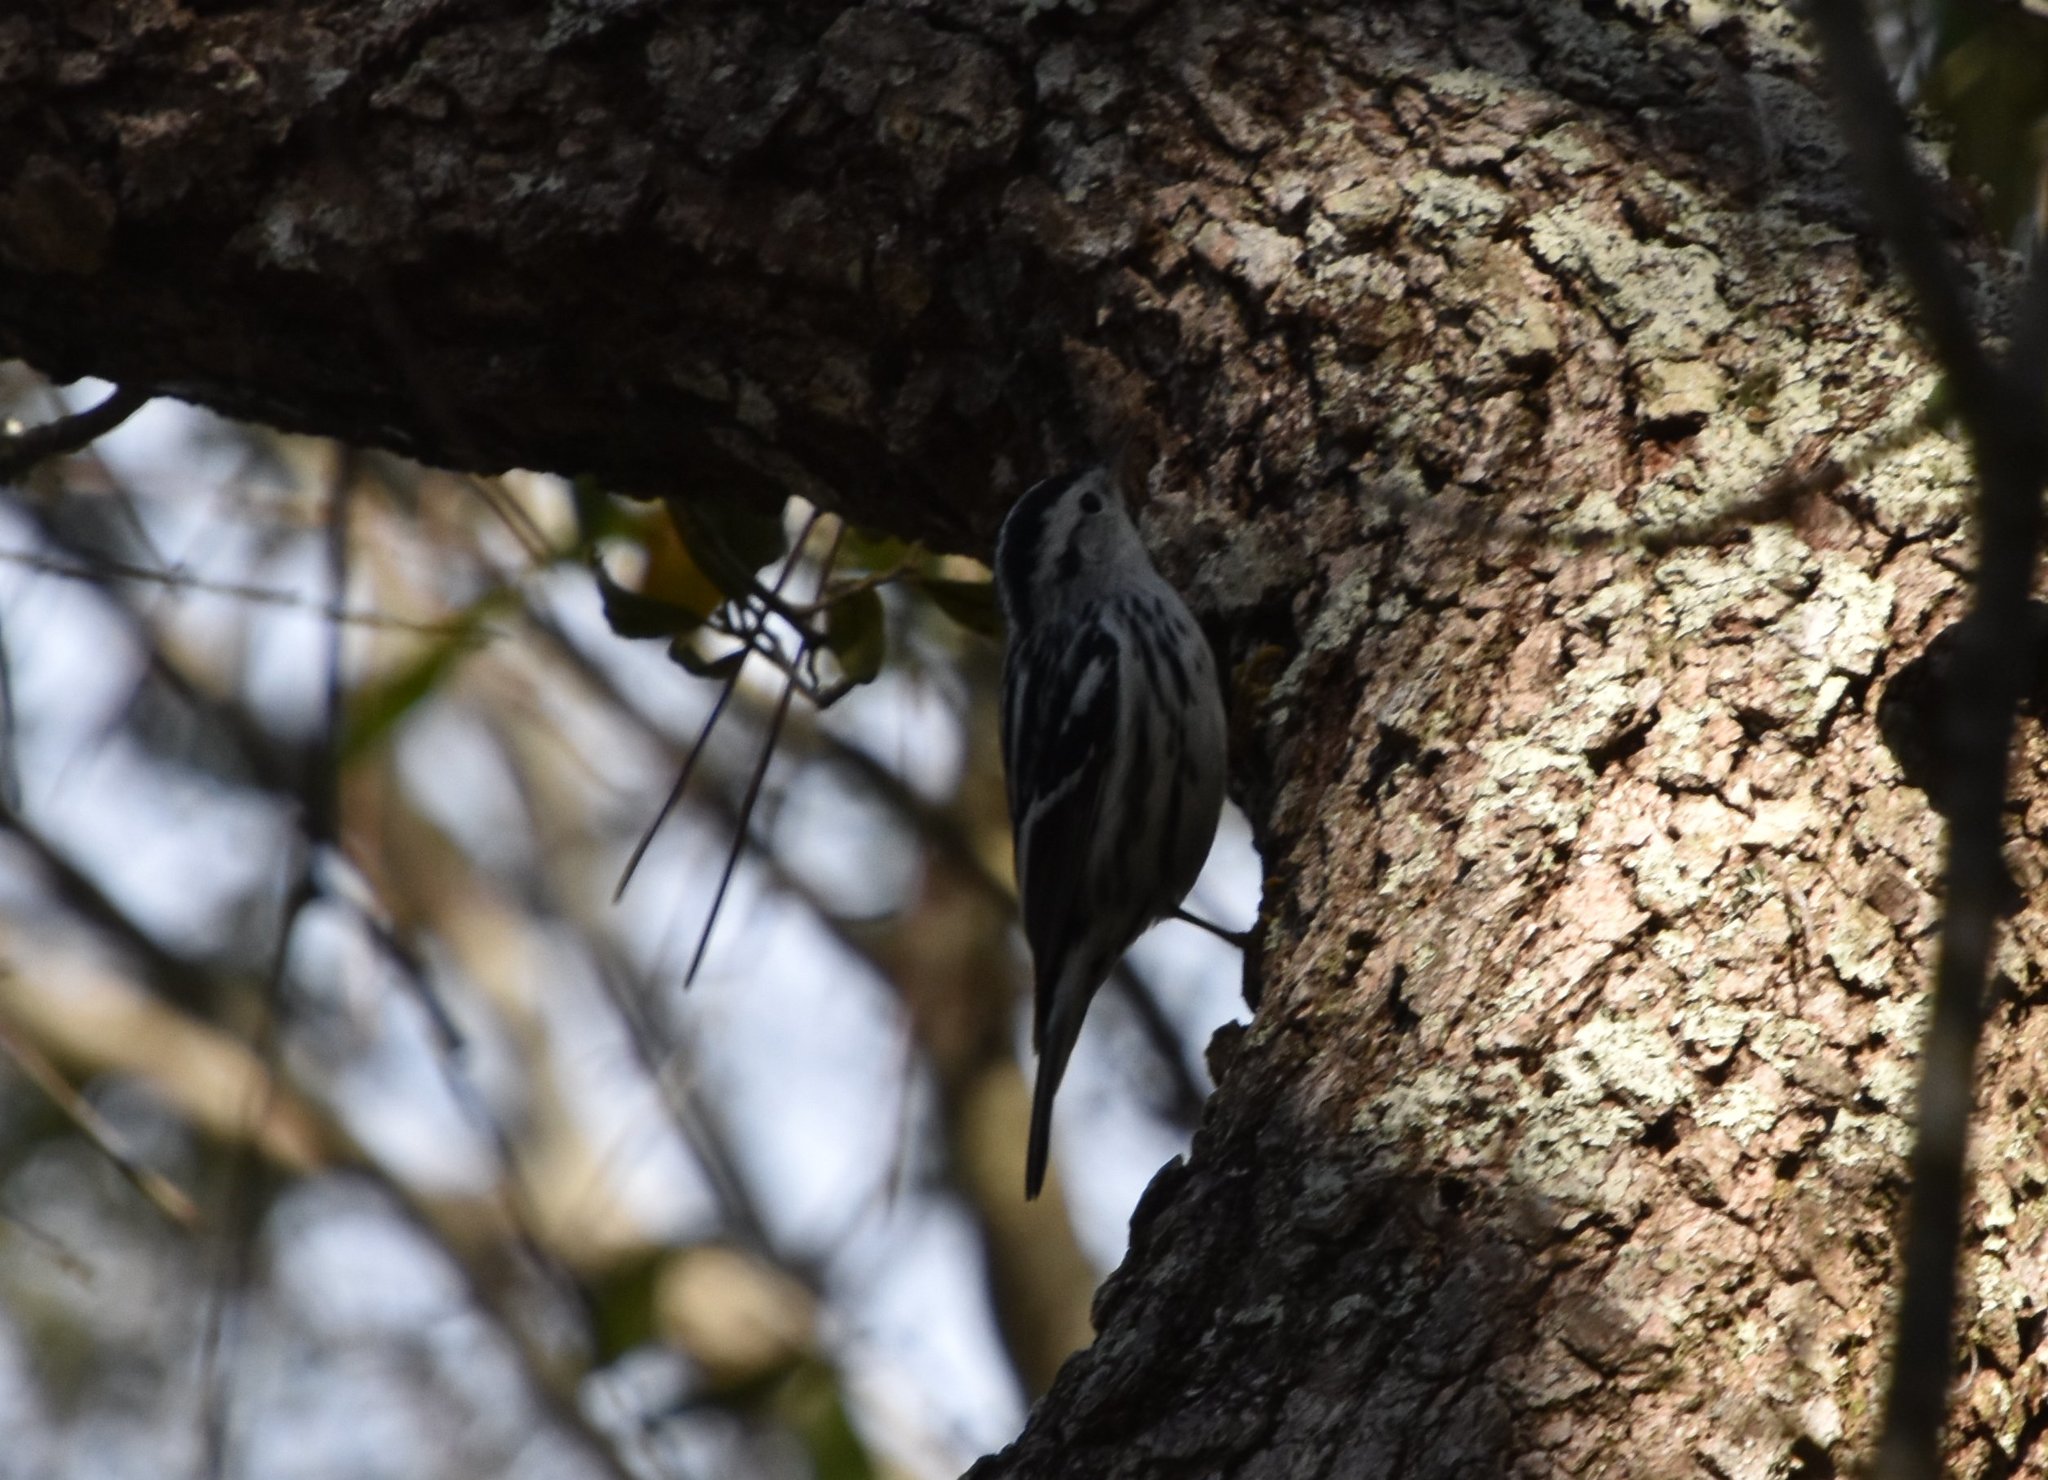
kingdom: Animalia
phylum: Chordata
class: Aves
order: Passeriformes
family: Parulidae
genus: Mniotilta
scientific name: Mniotilta varia
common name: Black-and-white warbler
